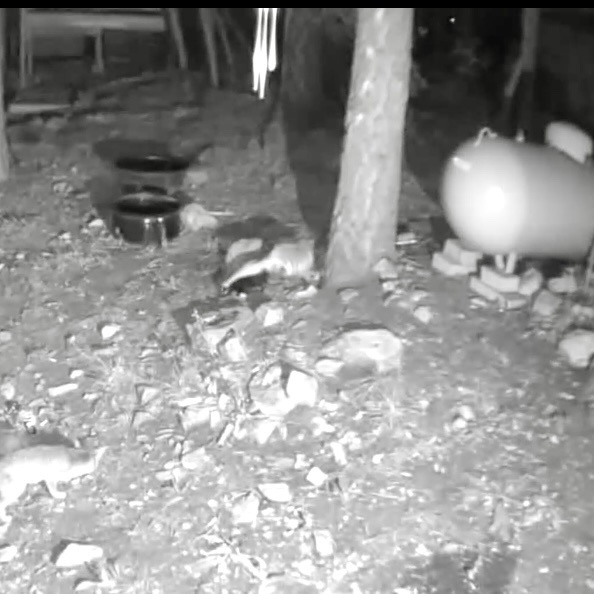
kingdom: Animalia
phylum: Chordata
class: Mammalia
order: Carnivora
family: Mephitidae
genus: Mephitis
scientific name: Mephitis mephitis
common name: Striped skunk
